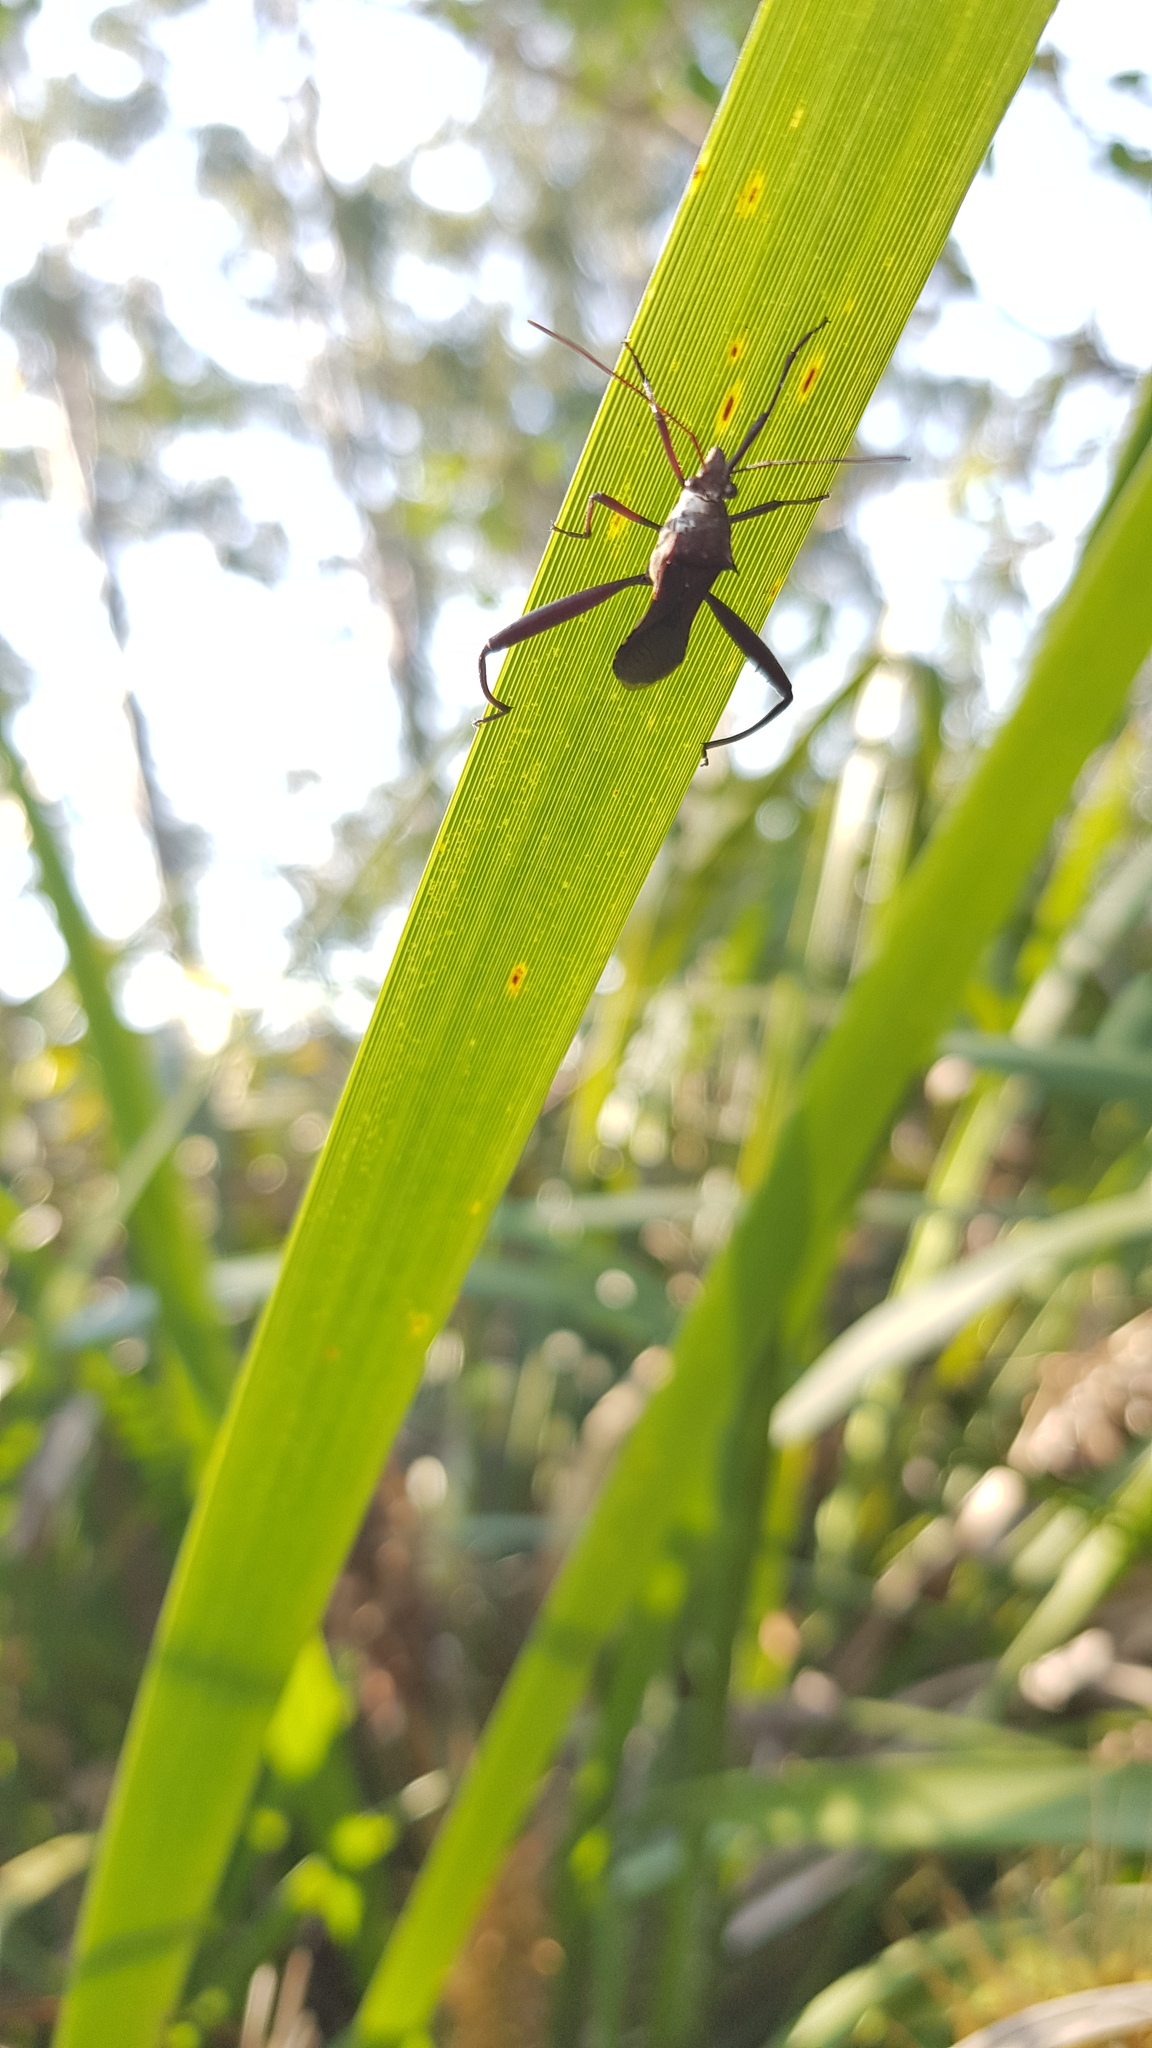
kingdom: Animalia
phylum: Arthropoda
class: Insecta
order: Hemiptera
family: Alydidae
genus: Riptortus
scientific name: Riptortus serripes
